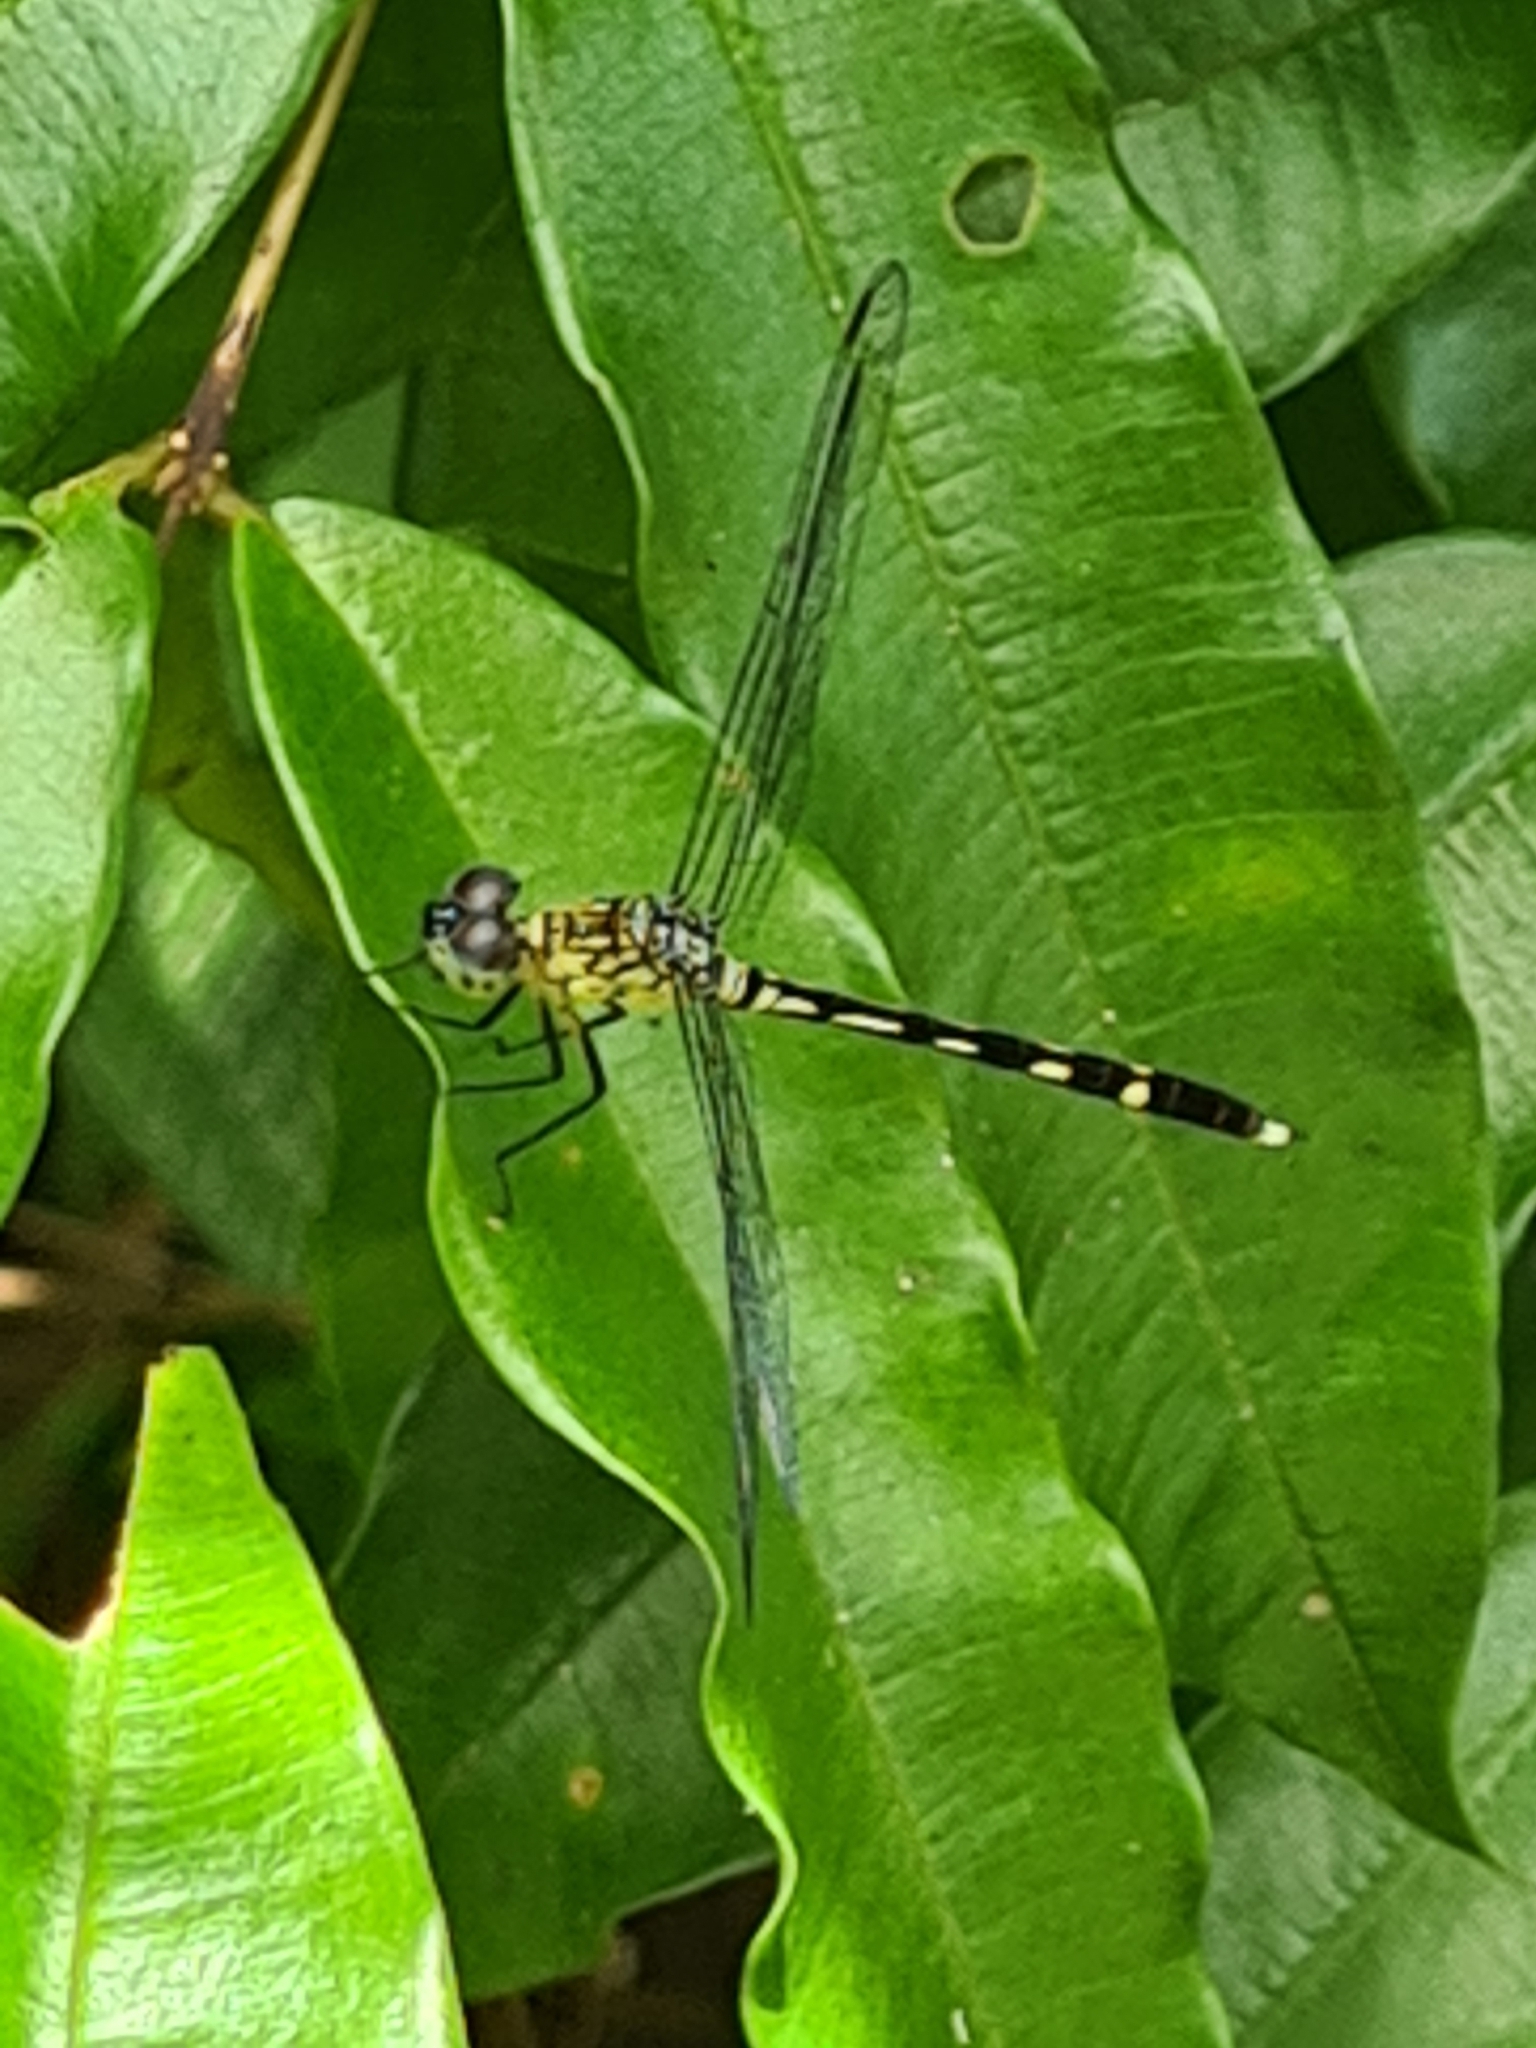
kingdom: Animalia
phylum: Arthropoda
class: Insecta
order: Odonata
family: Libellulidae
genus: Anatya
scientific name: Anatya guttata
